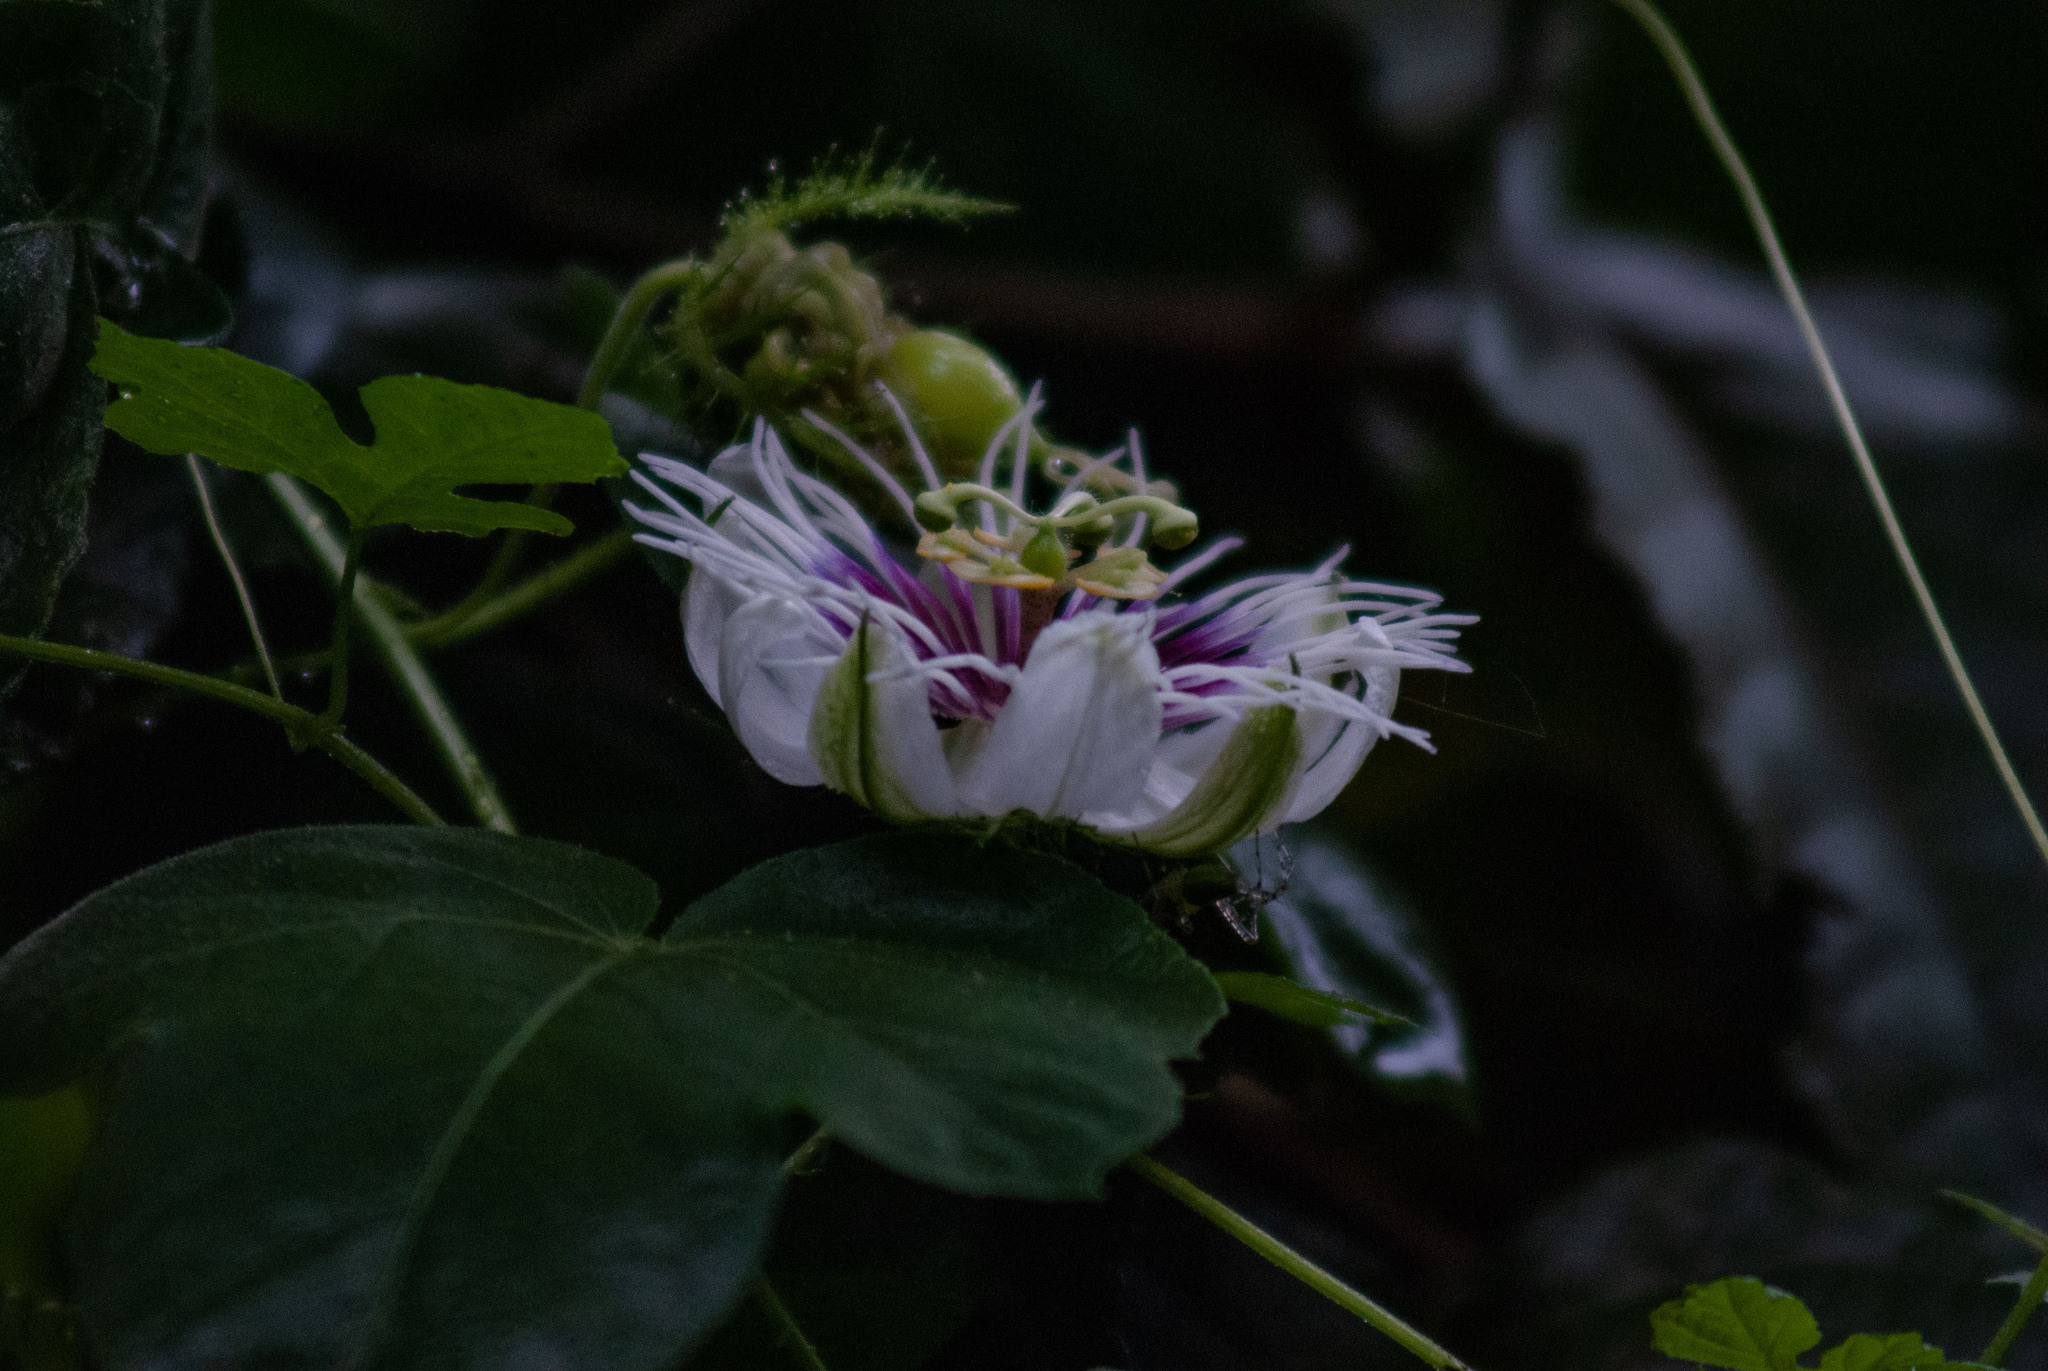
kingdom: Plantae
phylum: Tracheophyta
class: Magnoliopsida
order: Malpighiales
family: Passifloraceae
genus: Passiflora
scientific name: Passiflora foetida
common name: Fetid passionflower
